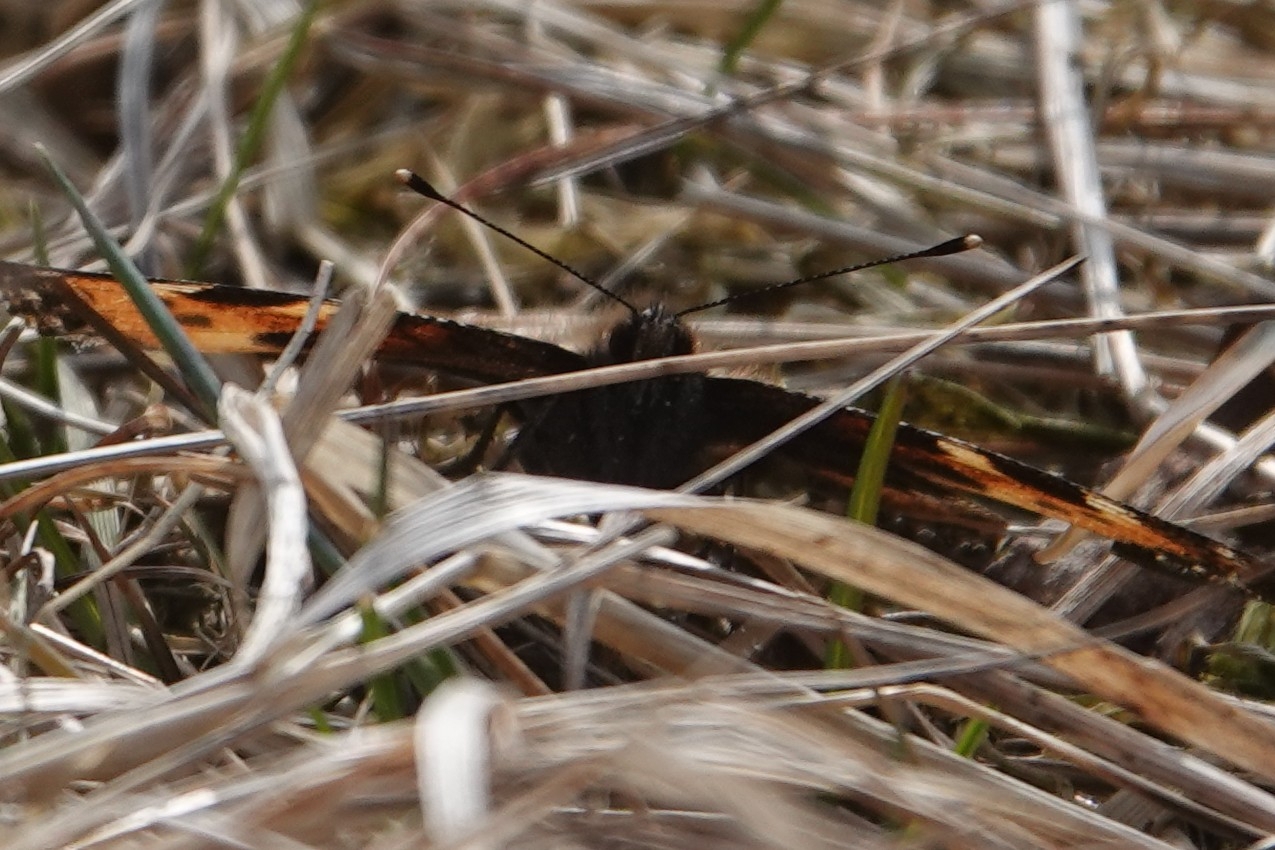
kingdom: Animalia
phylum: Arthropoda
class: Insecta
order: Lepidoptera
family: Nymphalidae
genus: Aglais
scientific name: Aglais urticae
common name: Small tortoiseshell
